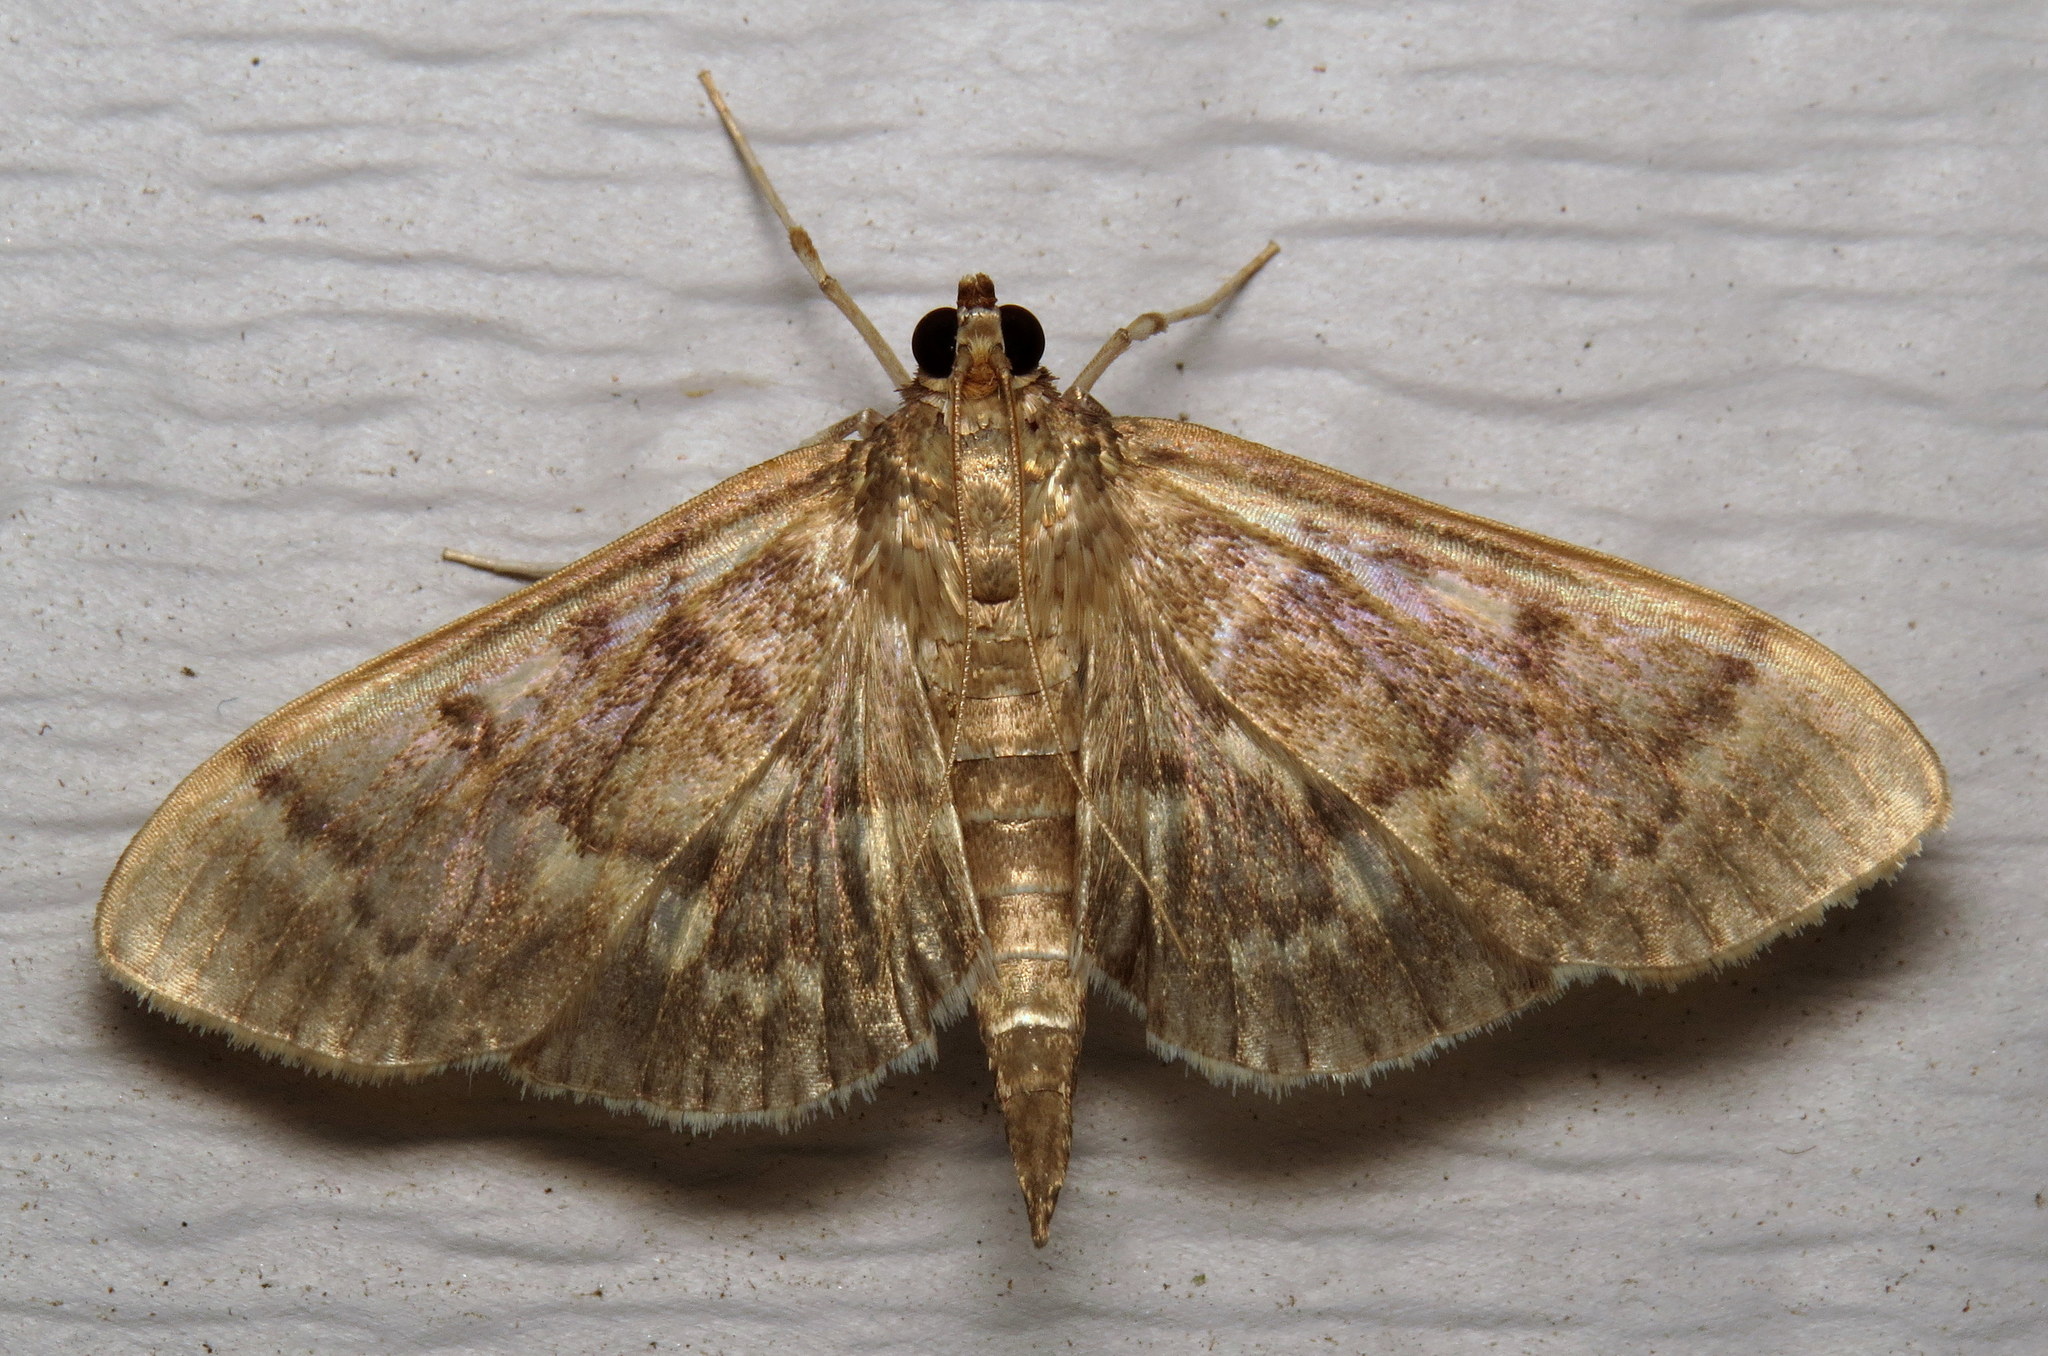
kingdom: Animalia
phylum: Arthropoda
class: Insecta
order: Lepidoptera
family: Crambidae
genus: Herpetogramma
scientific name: Herpetogramma aeglealis
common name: Serpentine webworm moth
